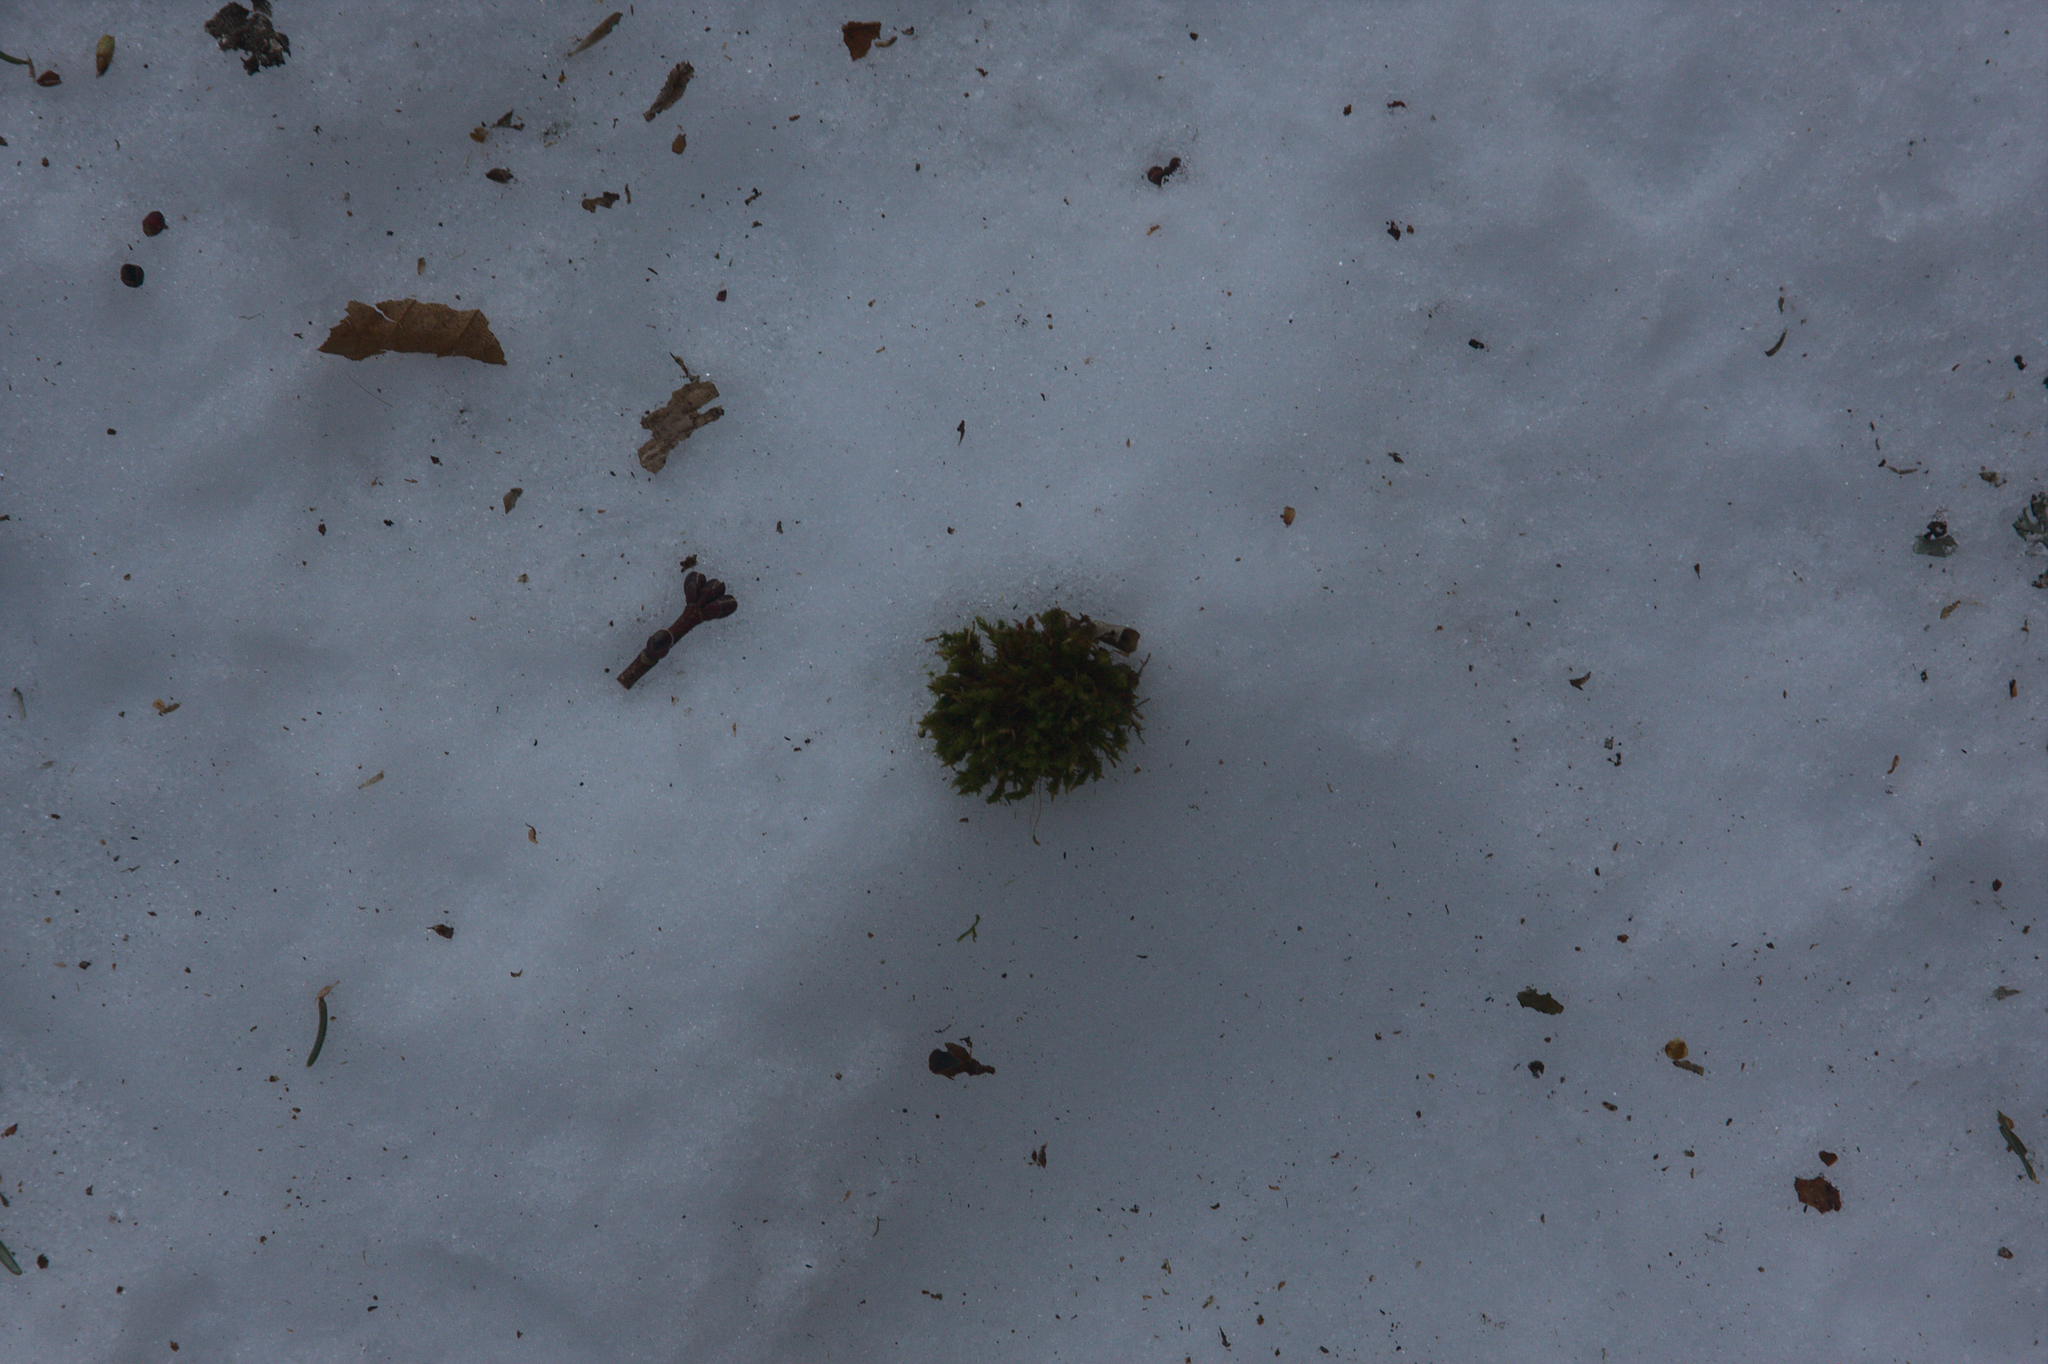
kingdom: Plantae
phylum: Bryophyta
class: Bryopsida
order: Orthotrichales
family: Orthotrichaceae
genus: Ulota
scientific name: Ulota crispa
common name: Crisped pincushion moss
